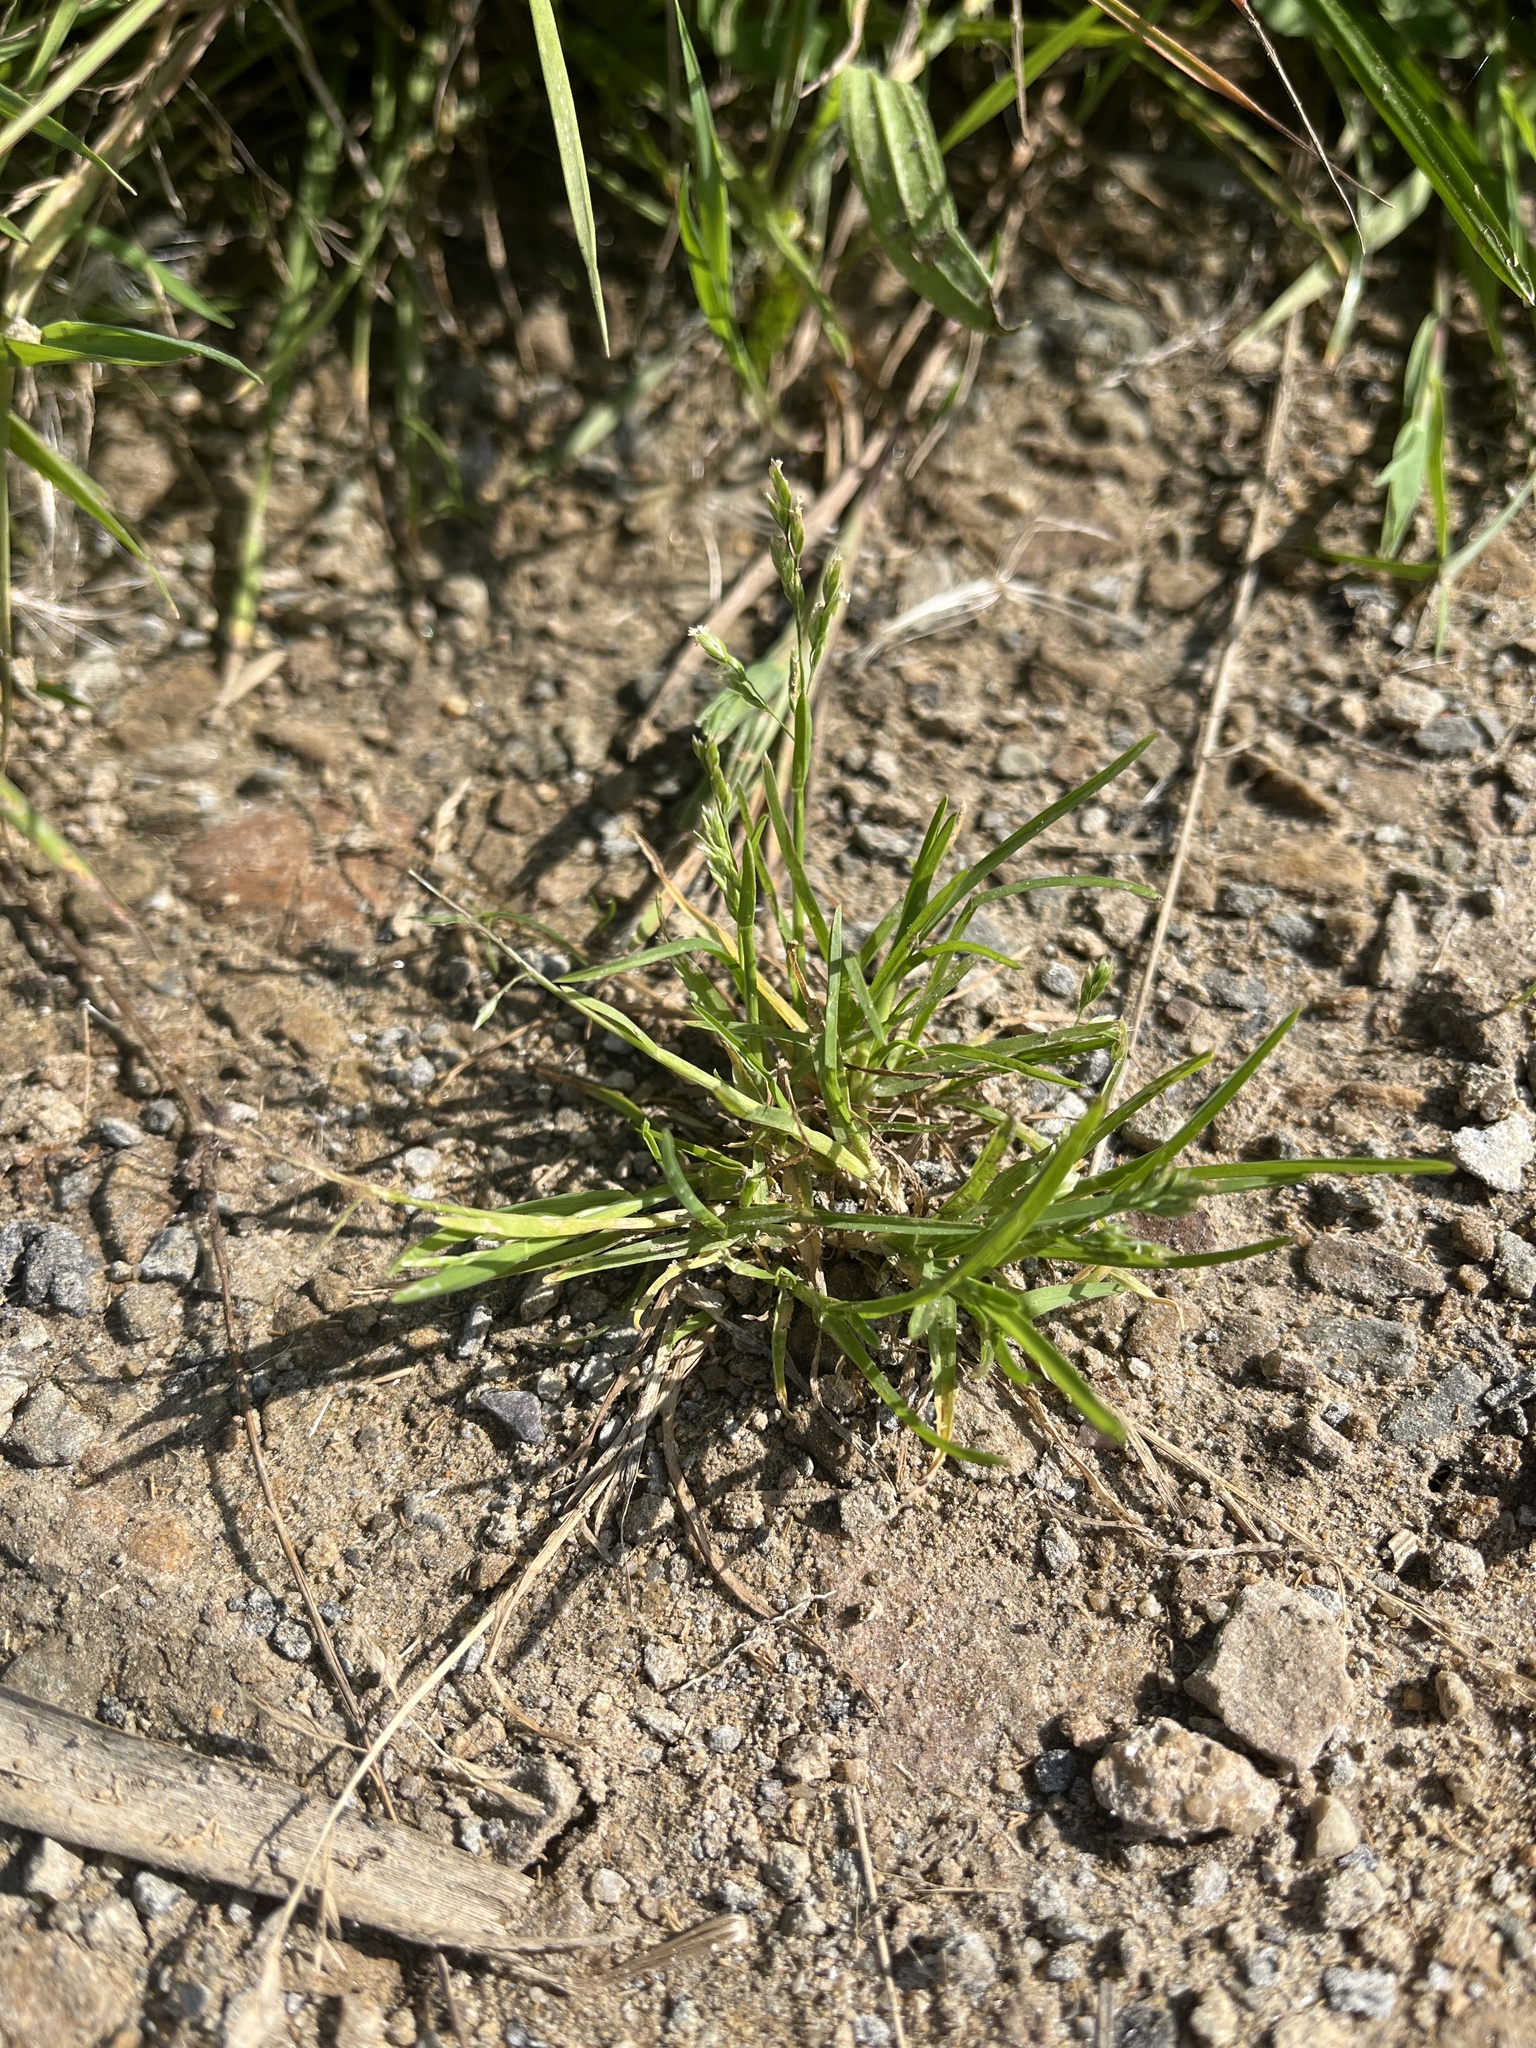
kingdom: Plantae
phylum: Tracheophyta
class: Liliopsida
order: Poales
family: Poaceae
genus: Poa
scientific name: Poa annua
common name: Annual bluegrass
